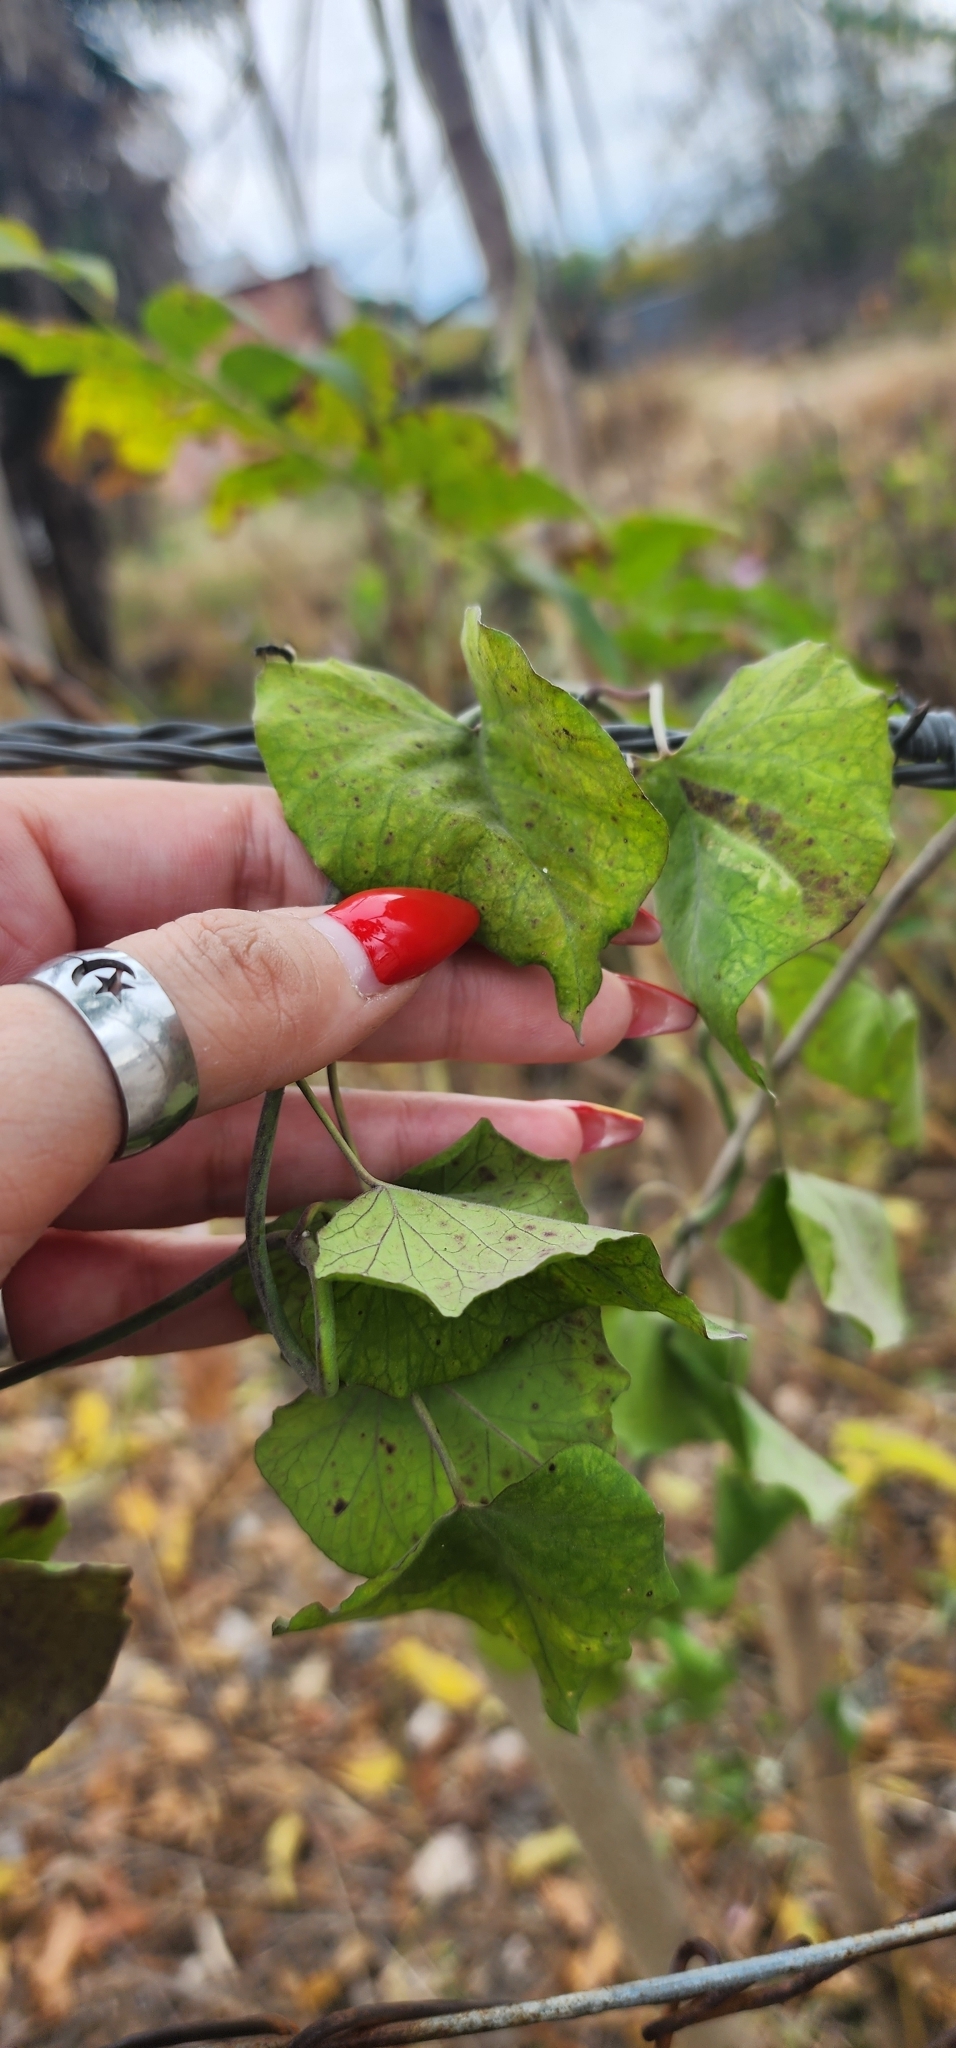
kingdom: Plantae
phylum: Tracheophyta
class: Magnoliopsida
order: Solanales
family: Convolvulaceae
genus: Ipomoea
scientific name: Ipomoea purpurea
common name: Common morning-glory
